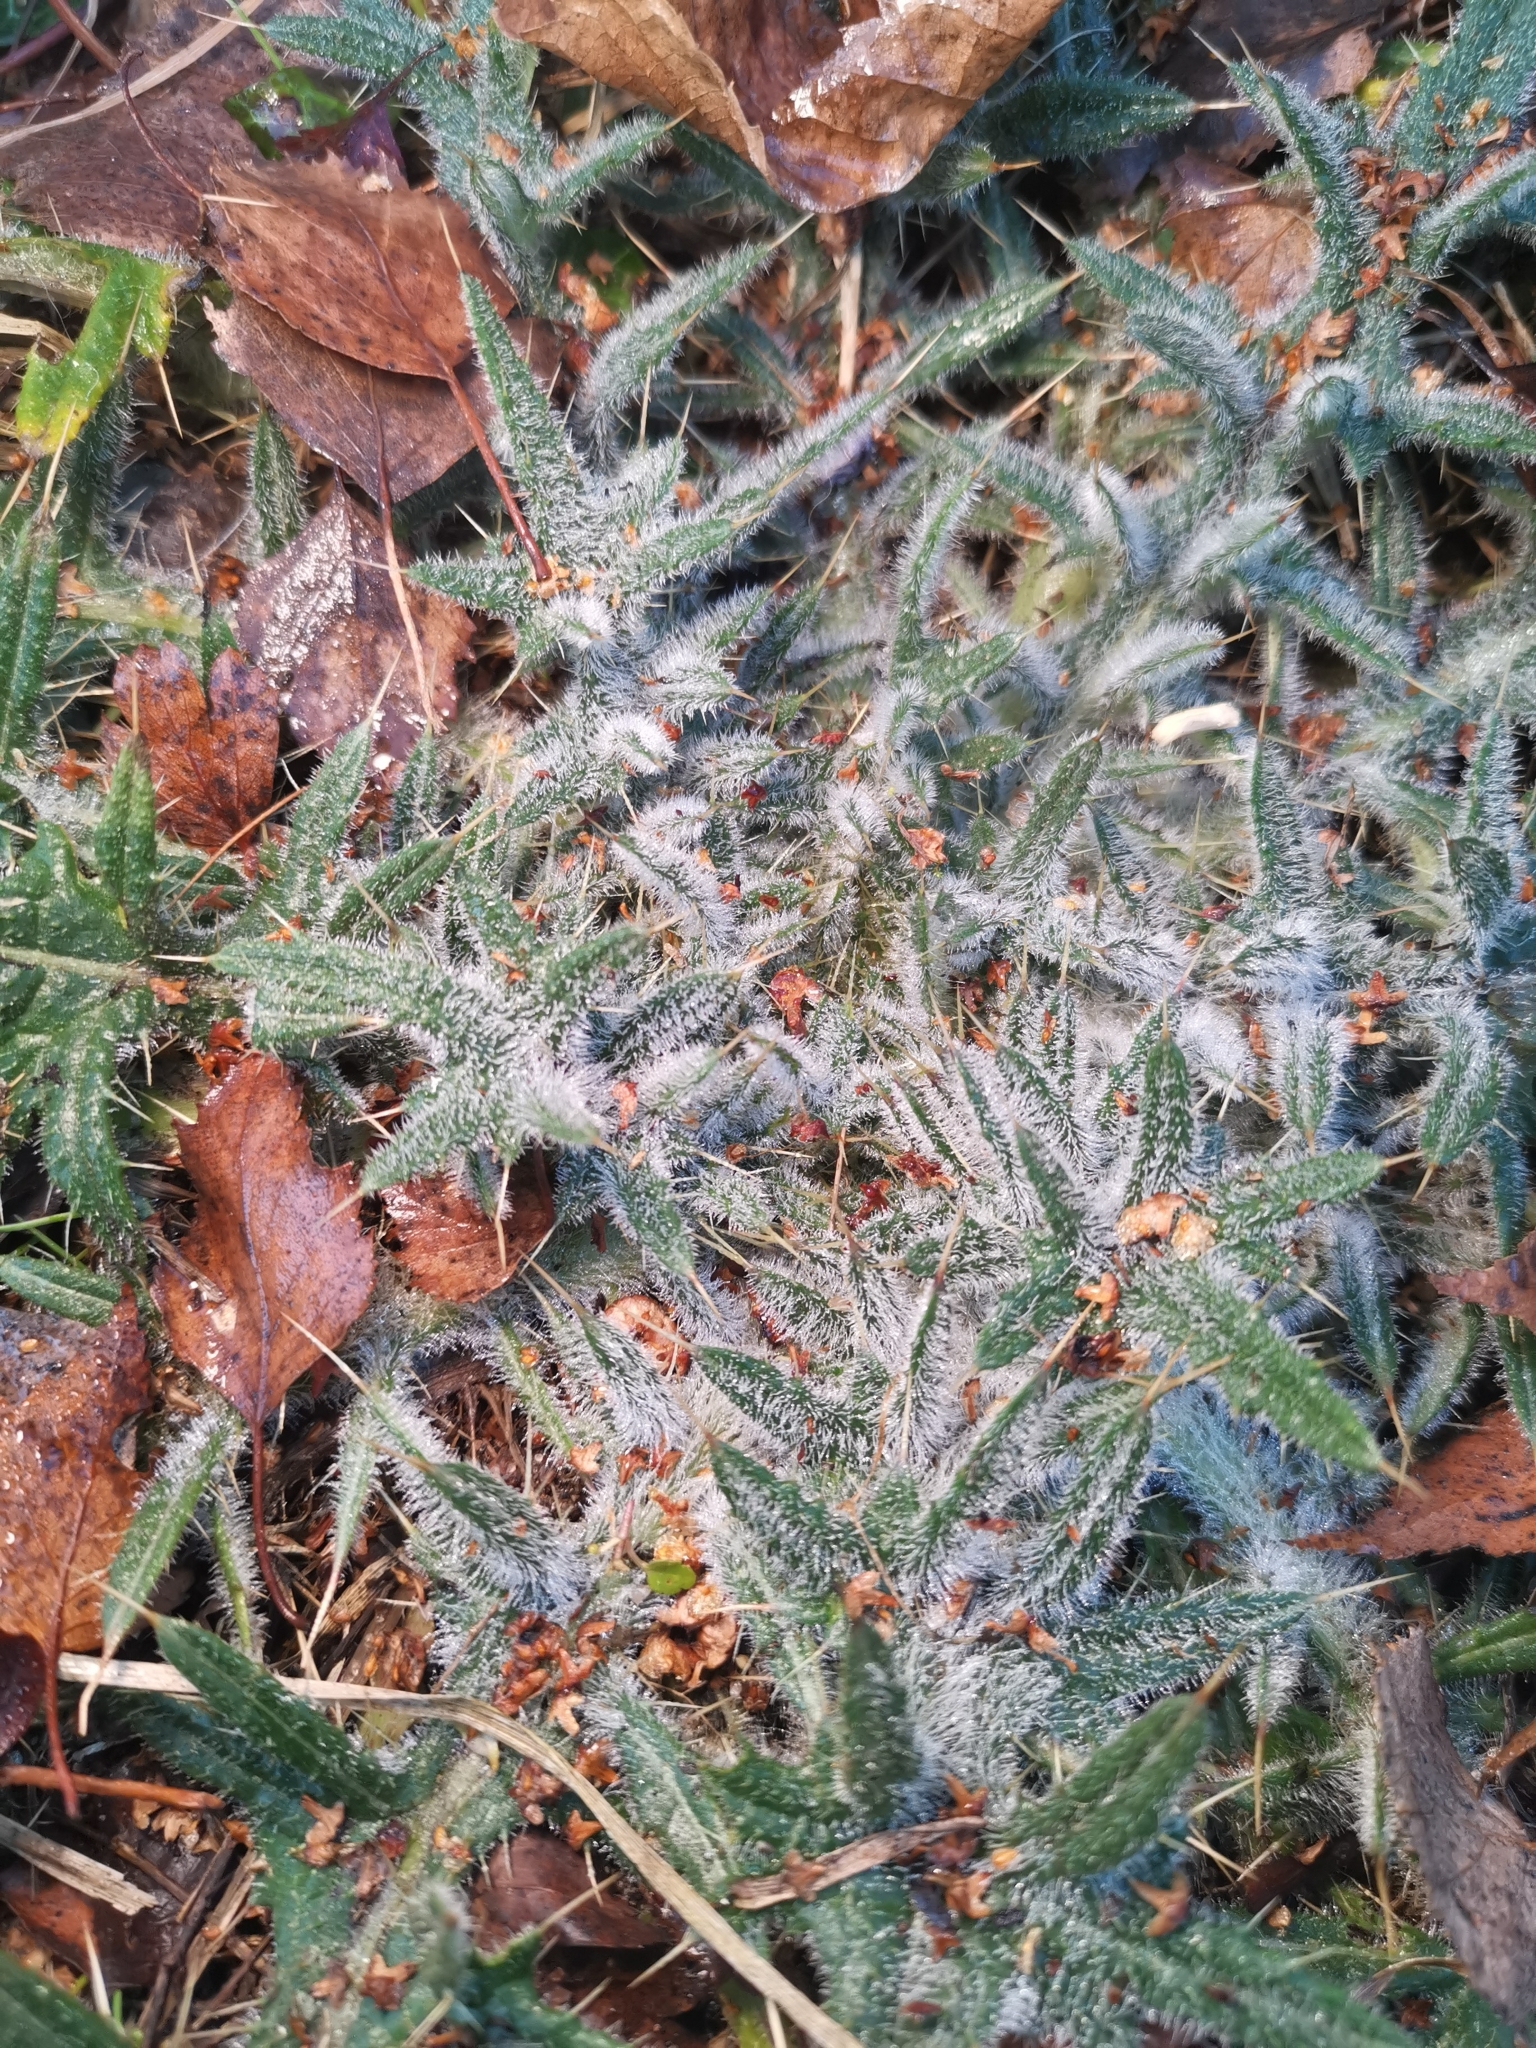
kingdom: Plantae
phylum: Tracheophyta
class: Magnoliopsida
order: Asterales
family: Asteraceae
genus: Cirsium
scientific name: Cirsium vulgare
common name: Bull thistle
